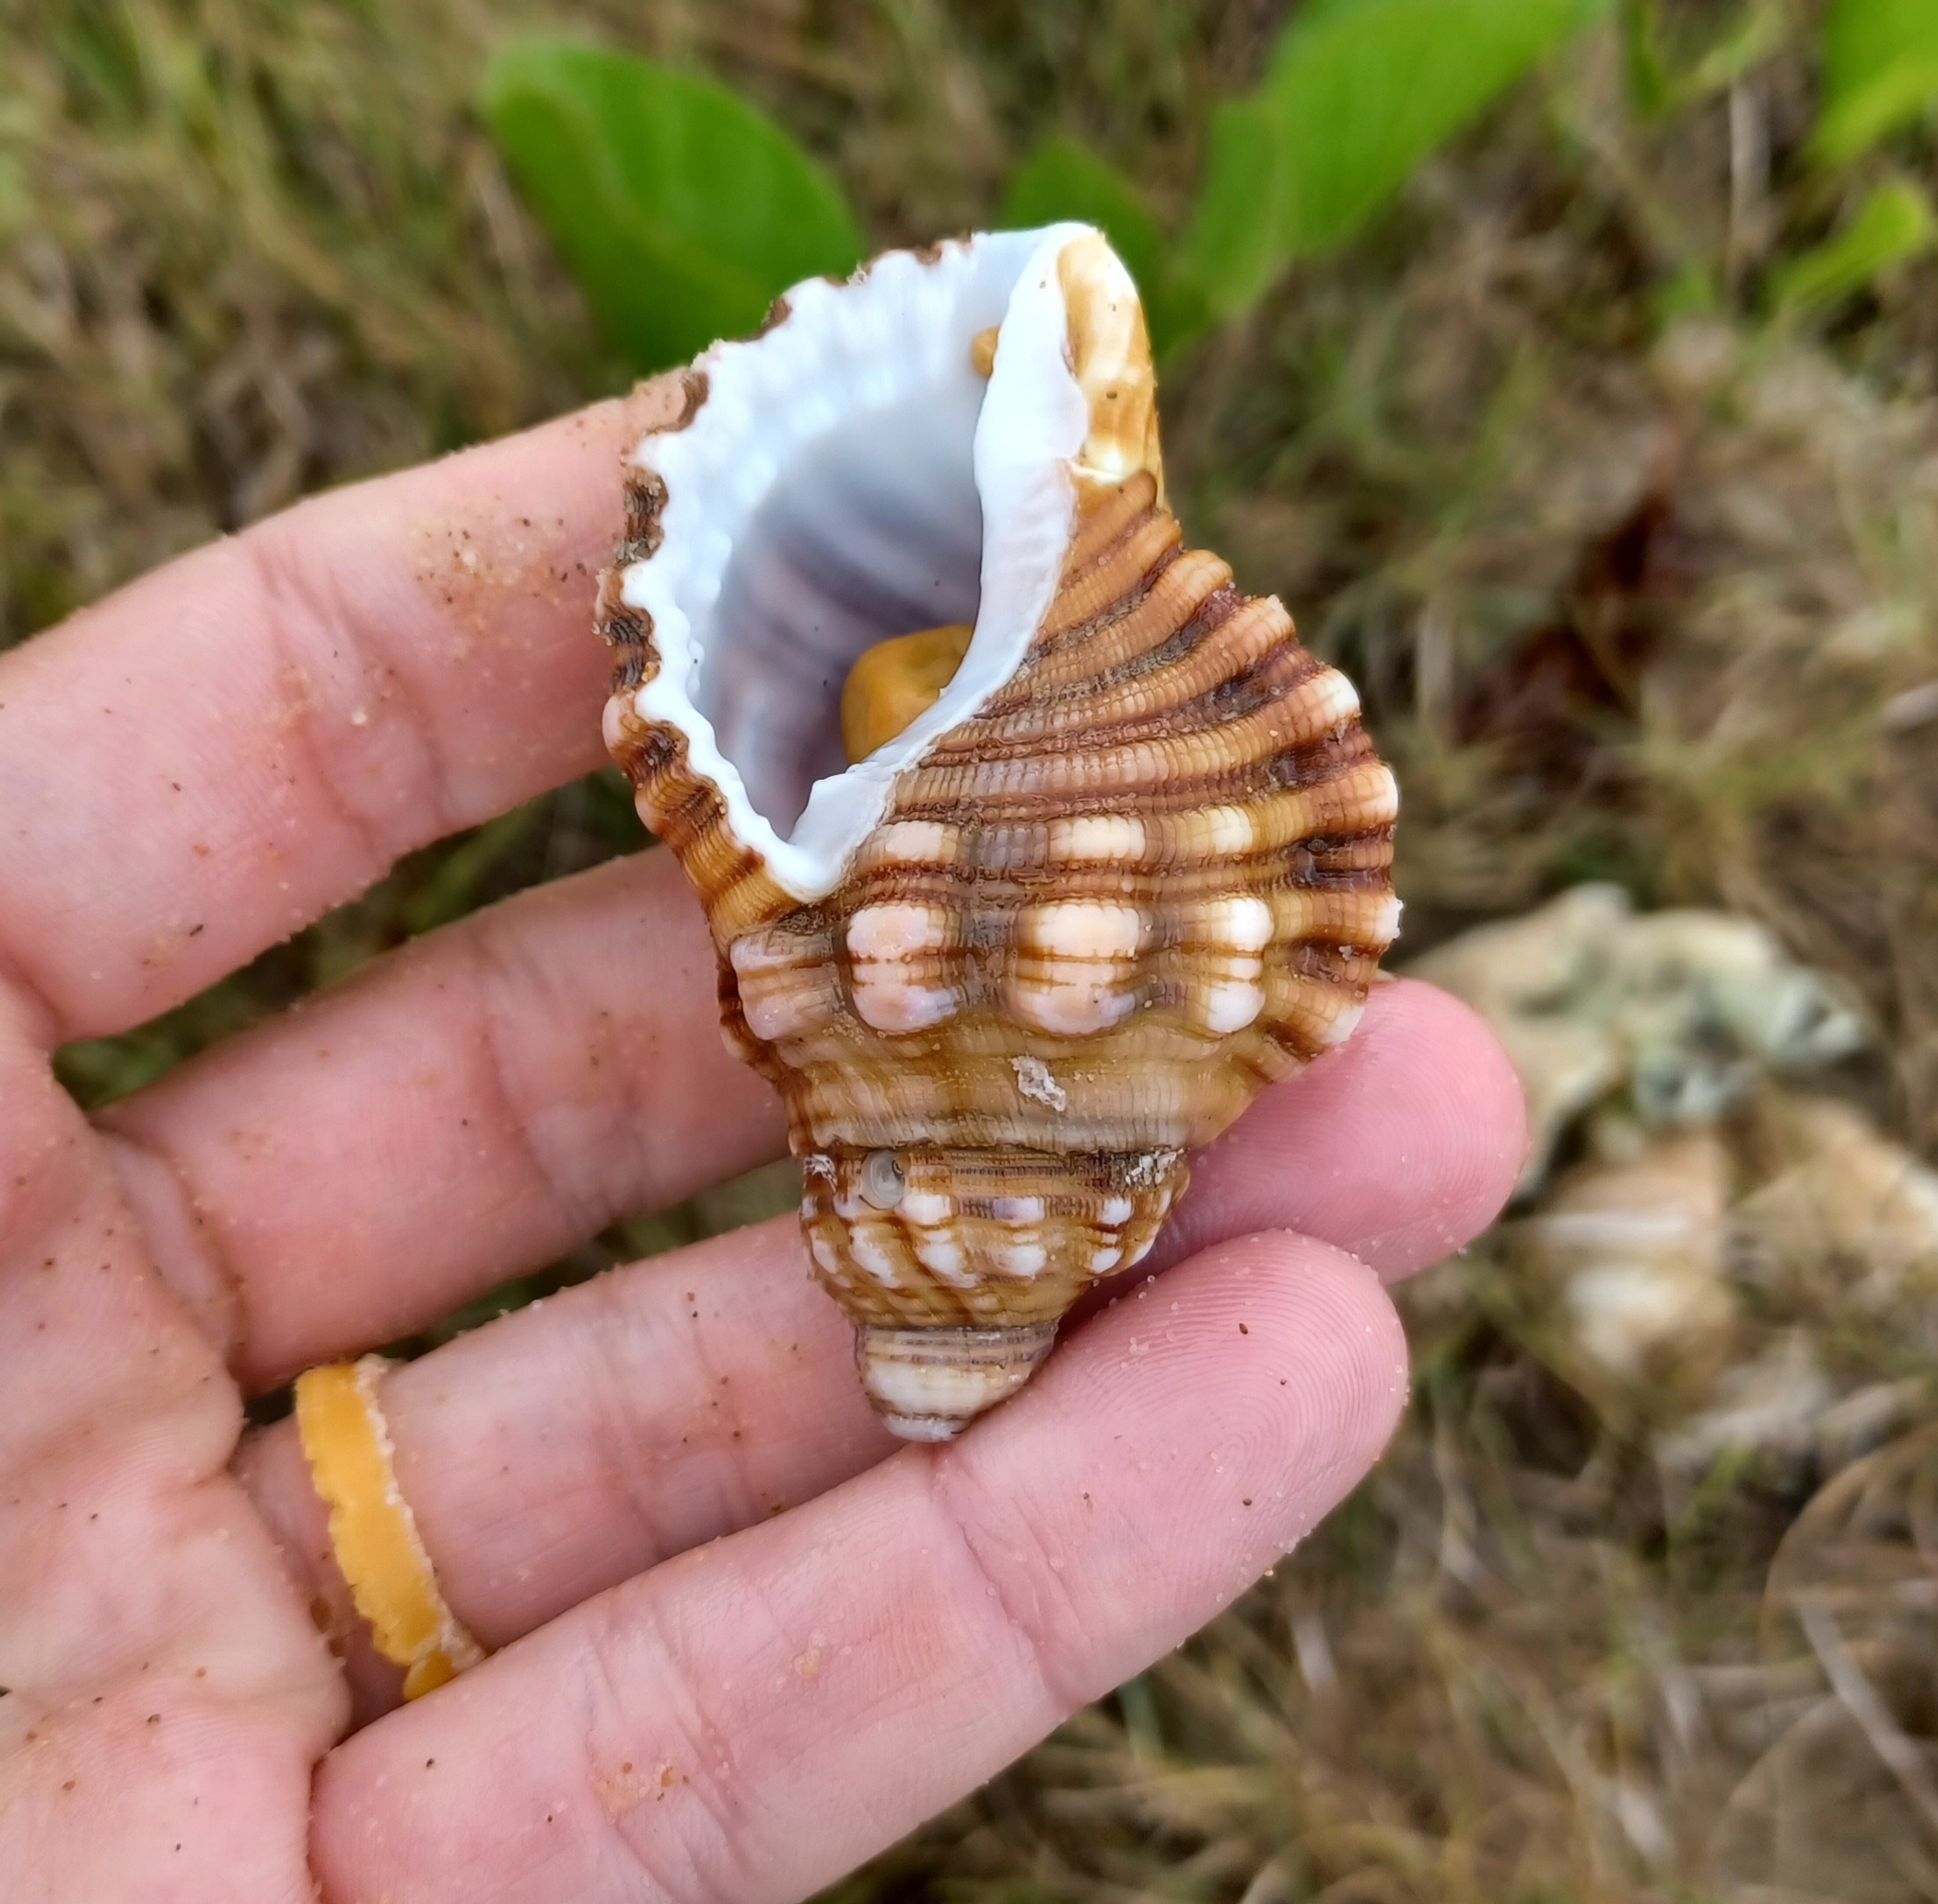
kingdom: Animalia
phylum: Mollusca
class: Gastropoda
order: Littorinimorpha
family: Cymatiidae
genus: Cabestana
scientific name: Cabestana spengleri
